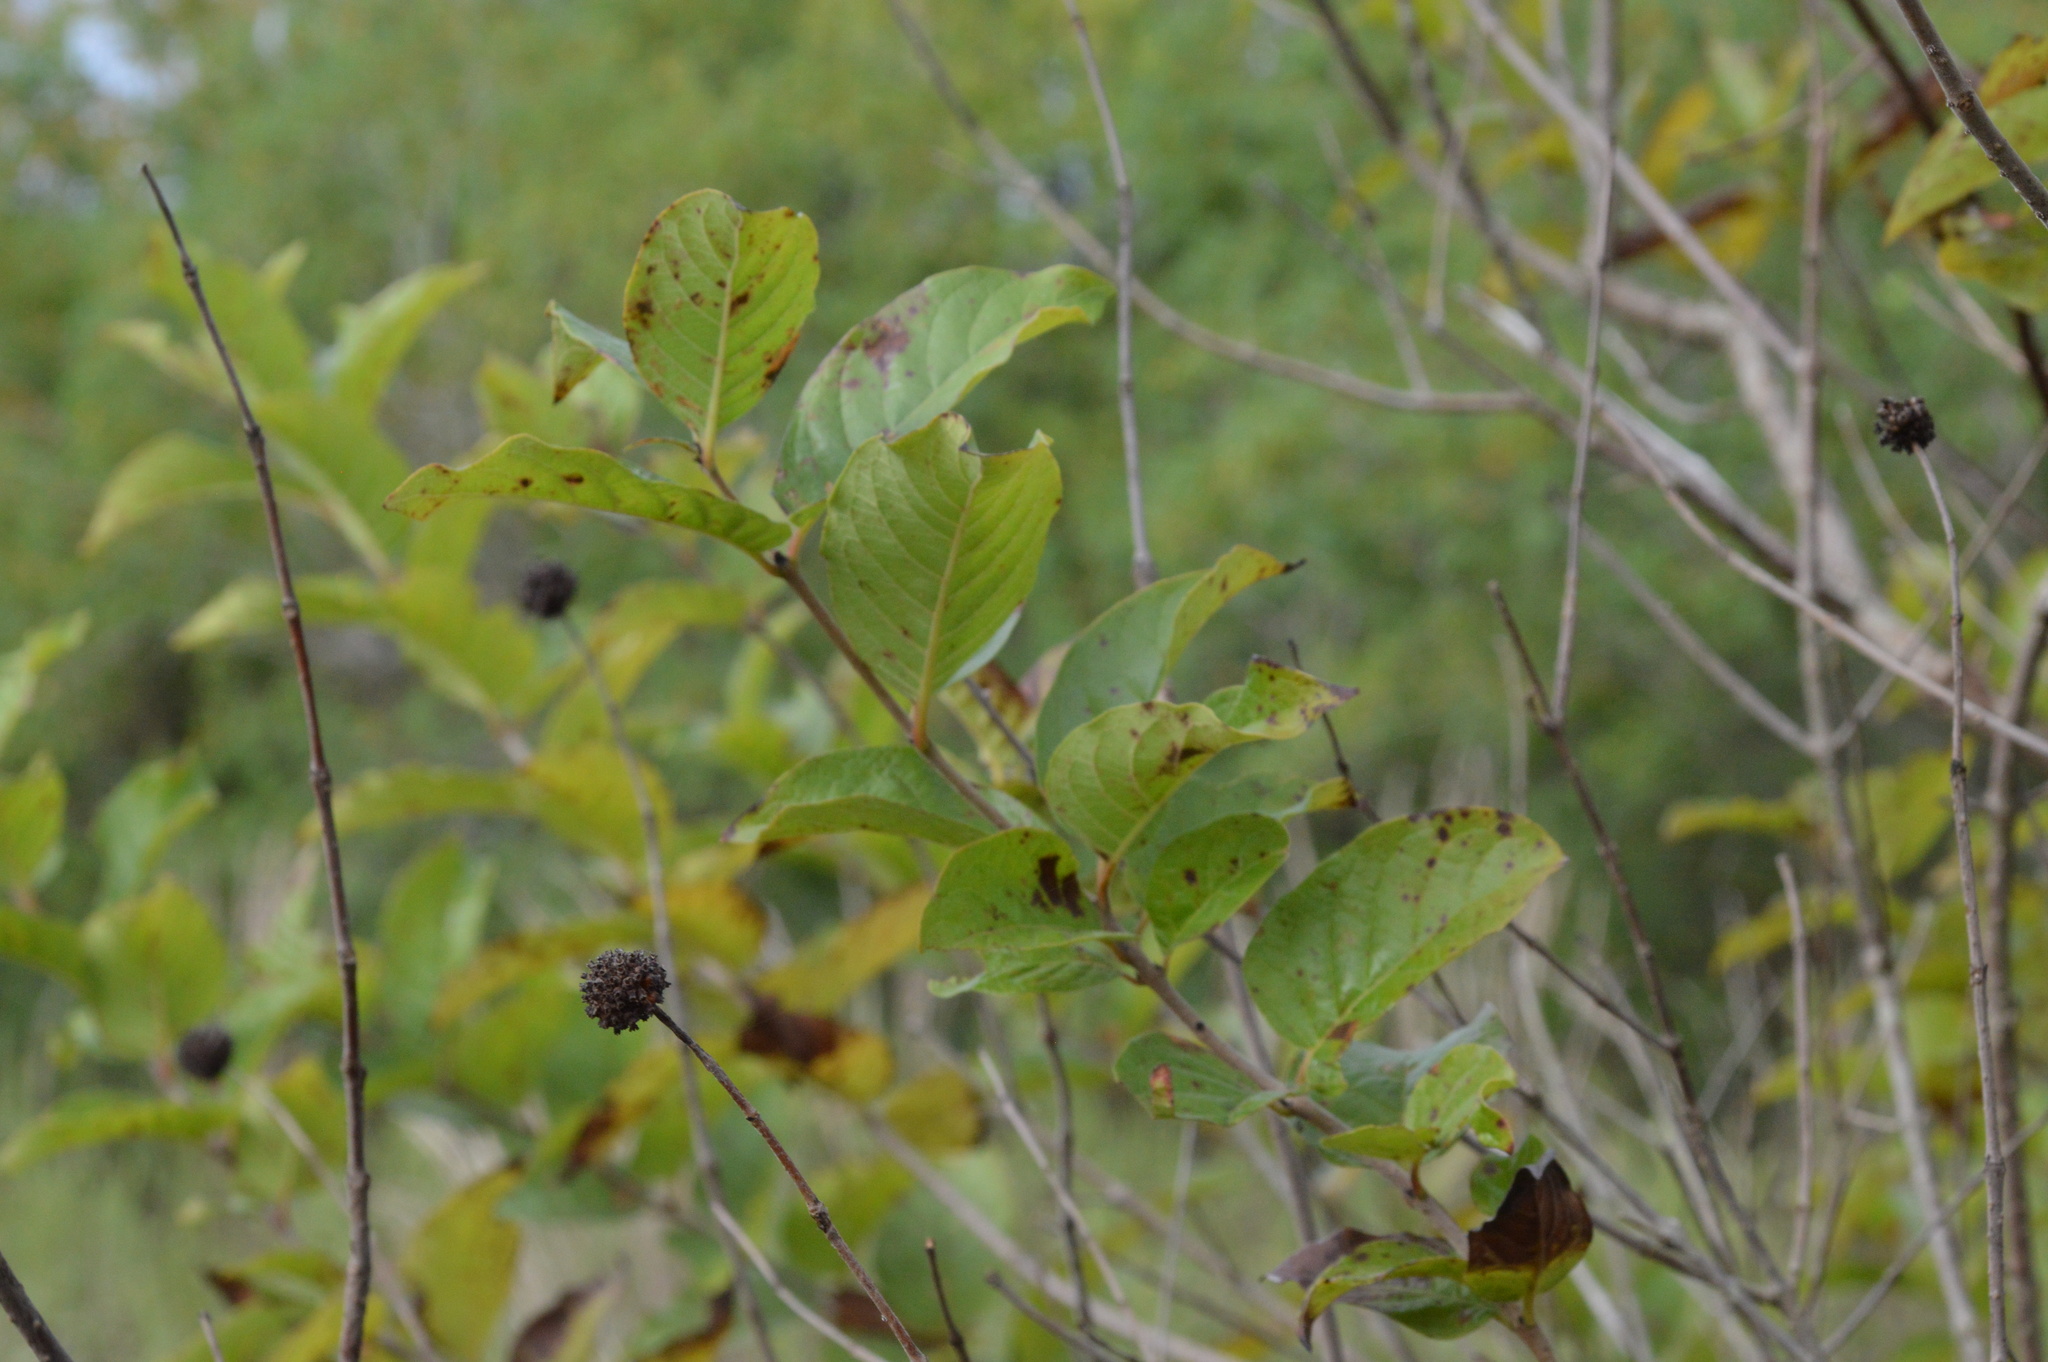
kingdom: Plantae
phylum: Tracheophyta
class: Magnoliopsida
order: Gentianales
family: Rubiaceae
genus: Cephalanthus
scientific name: Cephalanthus occidentalis
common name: Button-willow
